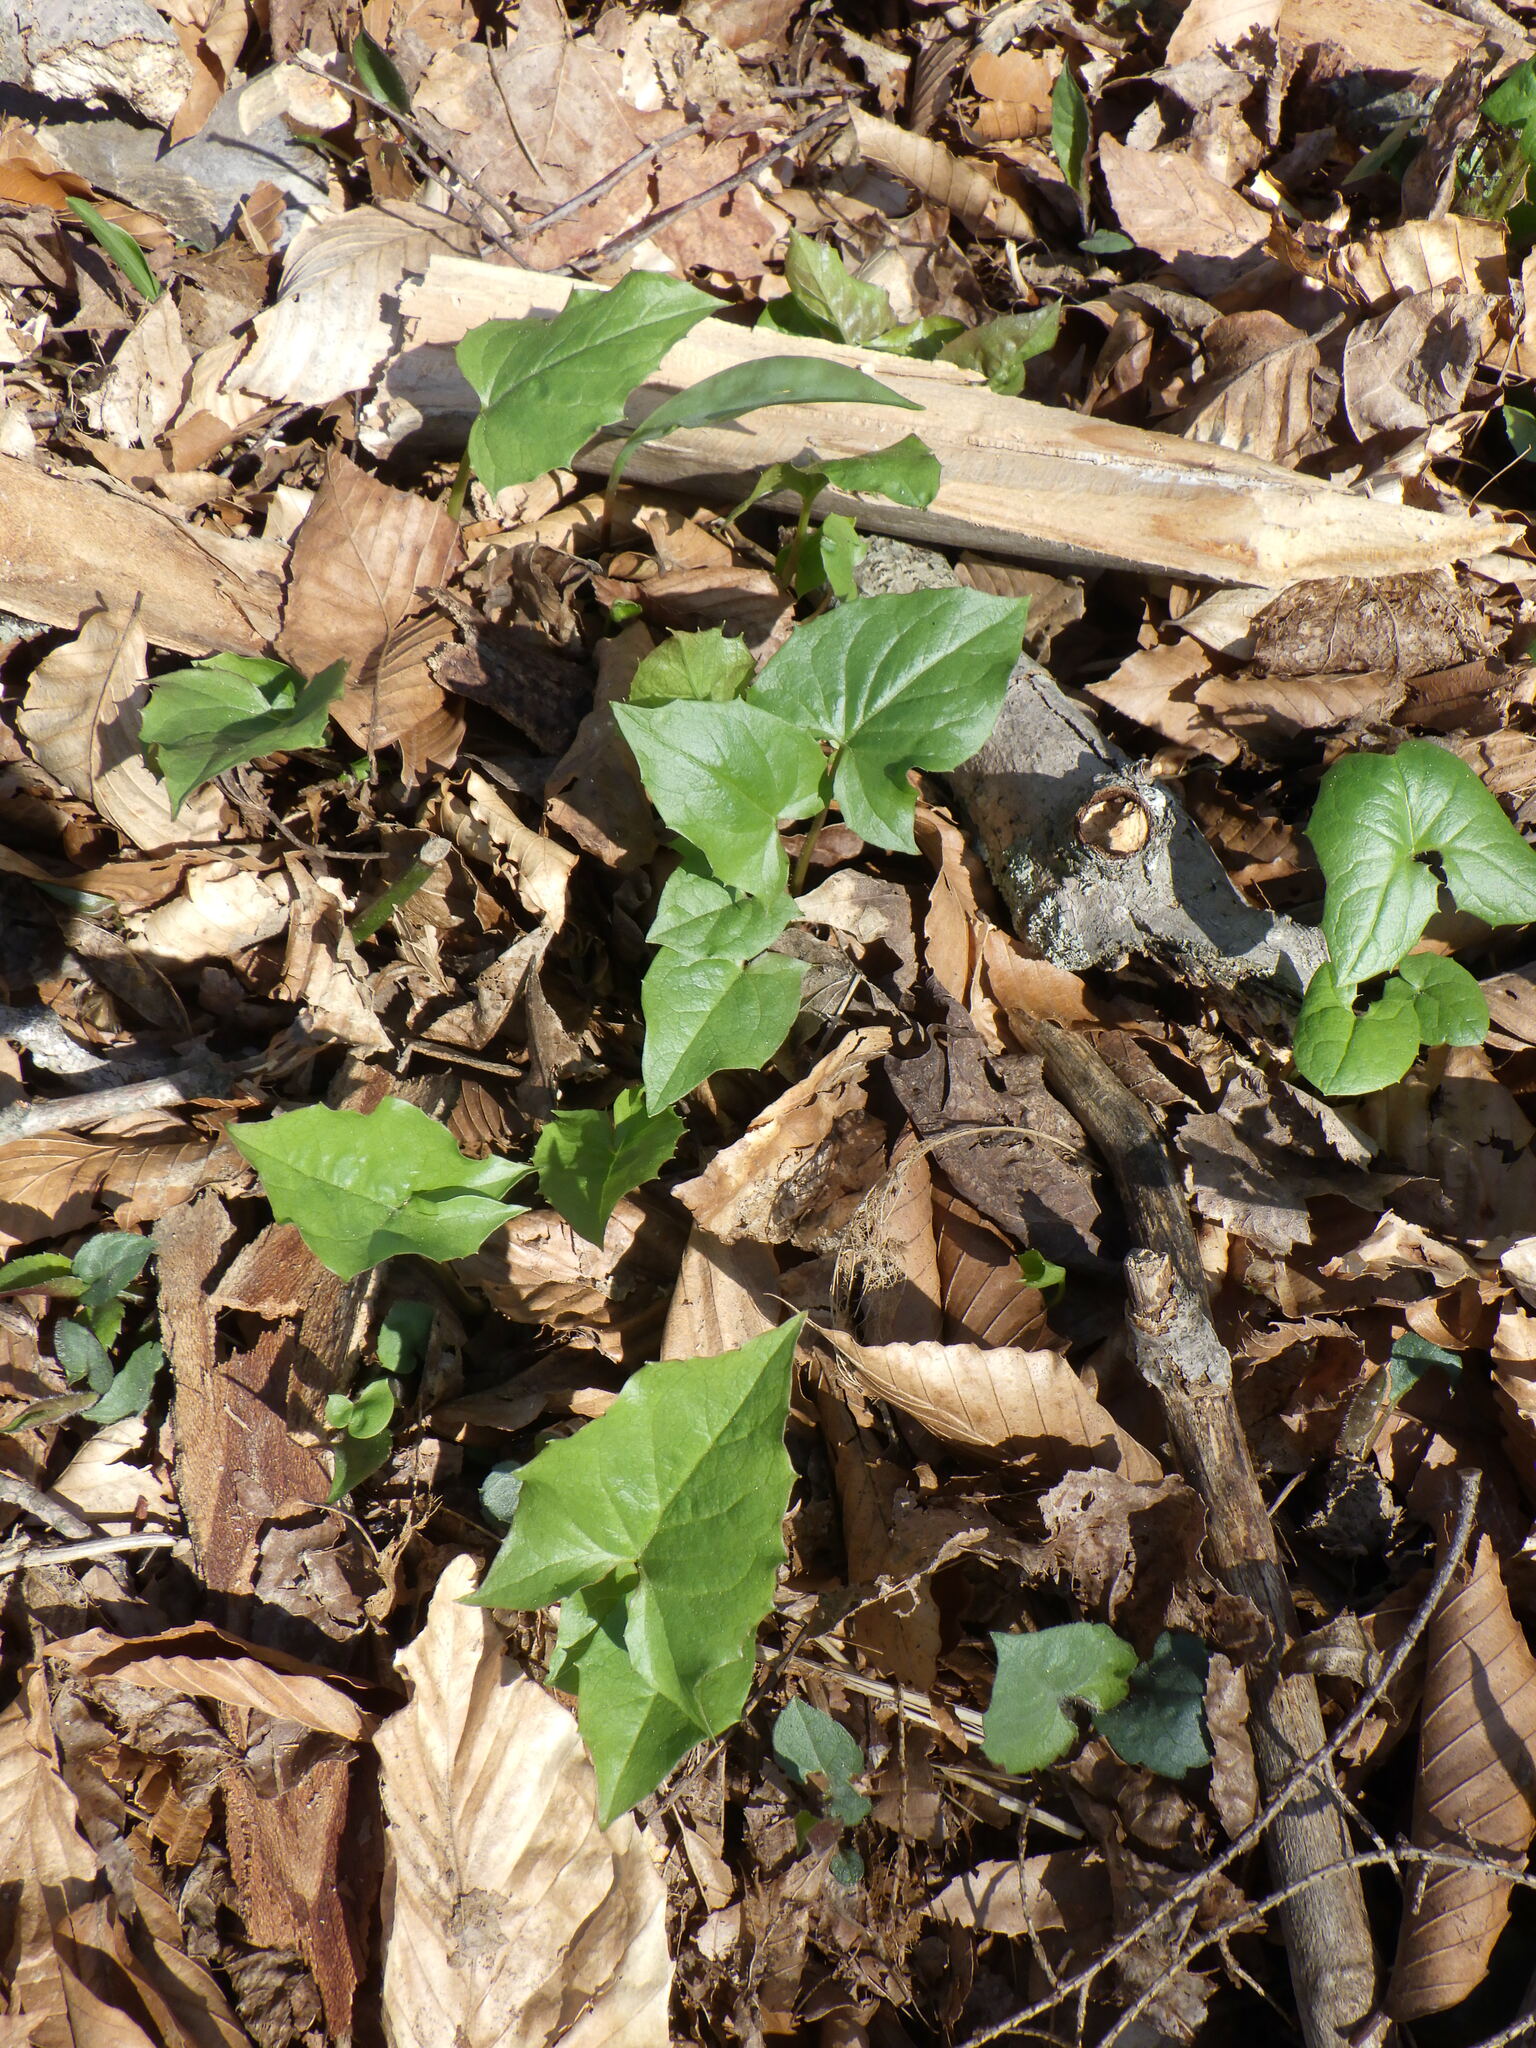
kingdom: Plantae
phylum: Tracheophyta
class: Magnoliopsida
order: Asterales
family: Asteraceae
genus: Nabalus
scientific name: Nabalus
